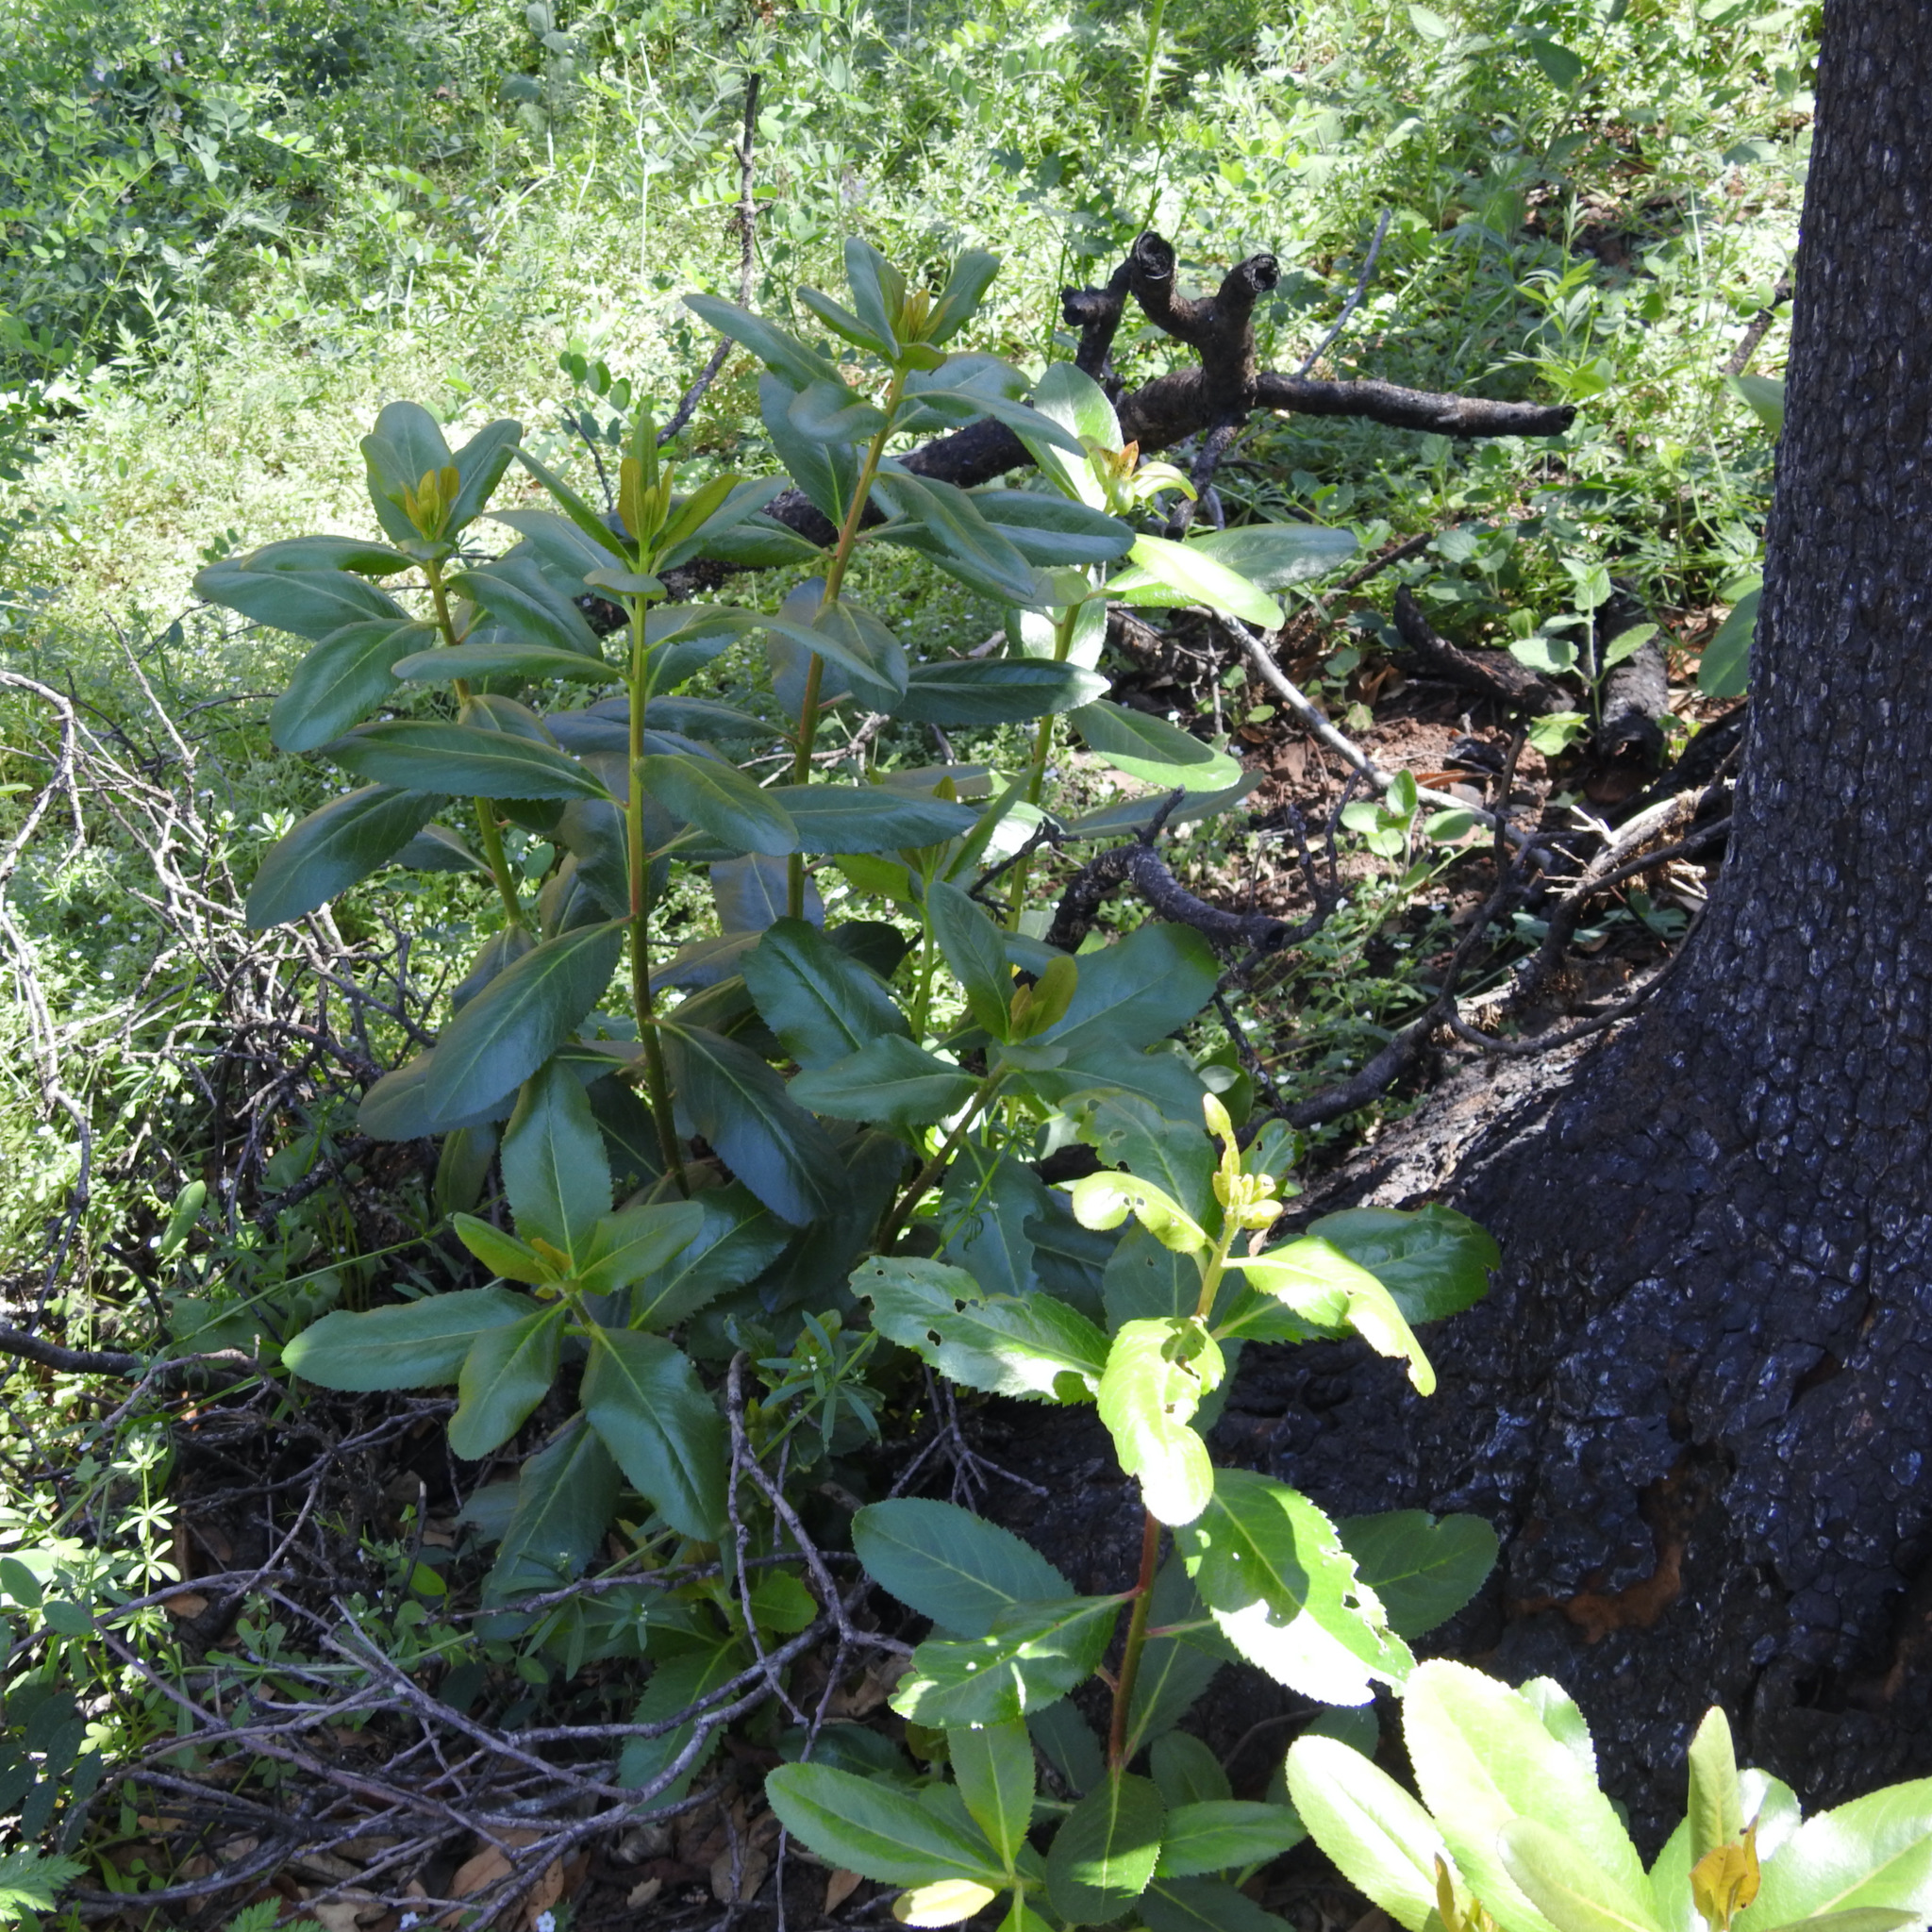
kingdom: Plantae
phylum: Tracheophyta
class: Magnoliopsida
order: Ericales
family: Ericaceae
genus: Arbutus
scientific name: Arbutus menziesii
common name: Pacific madrone
